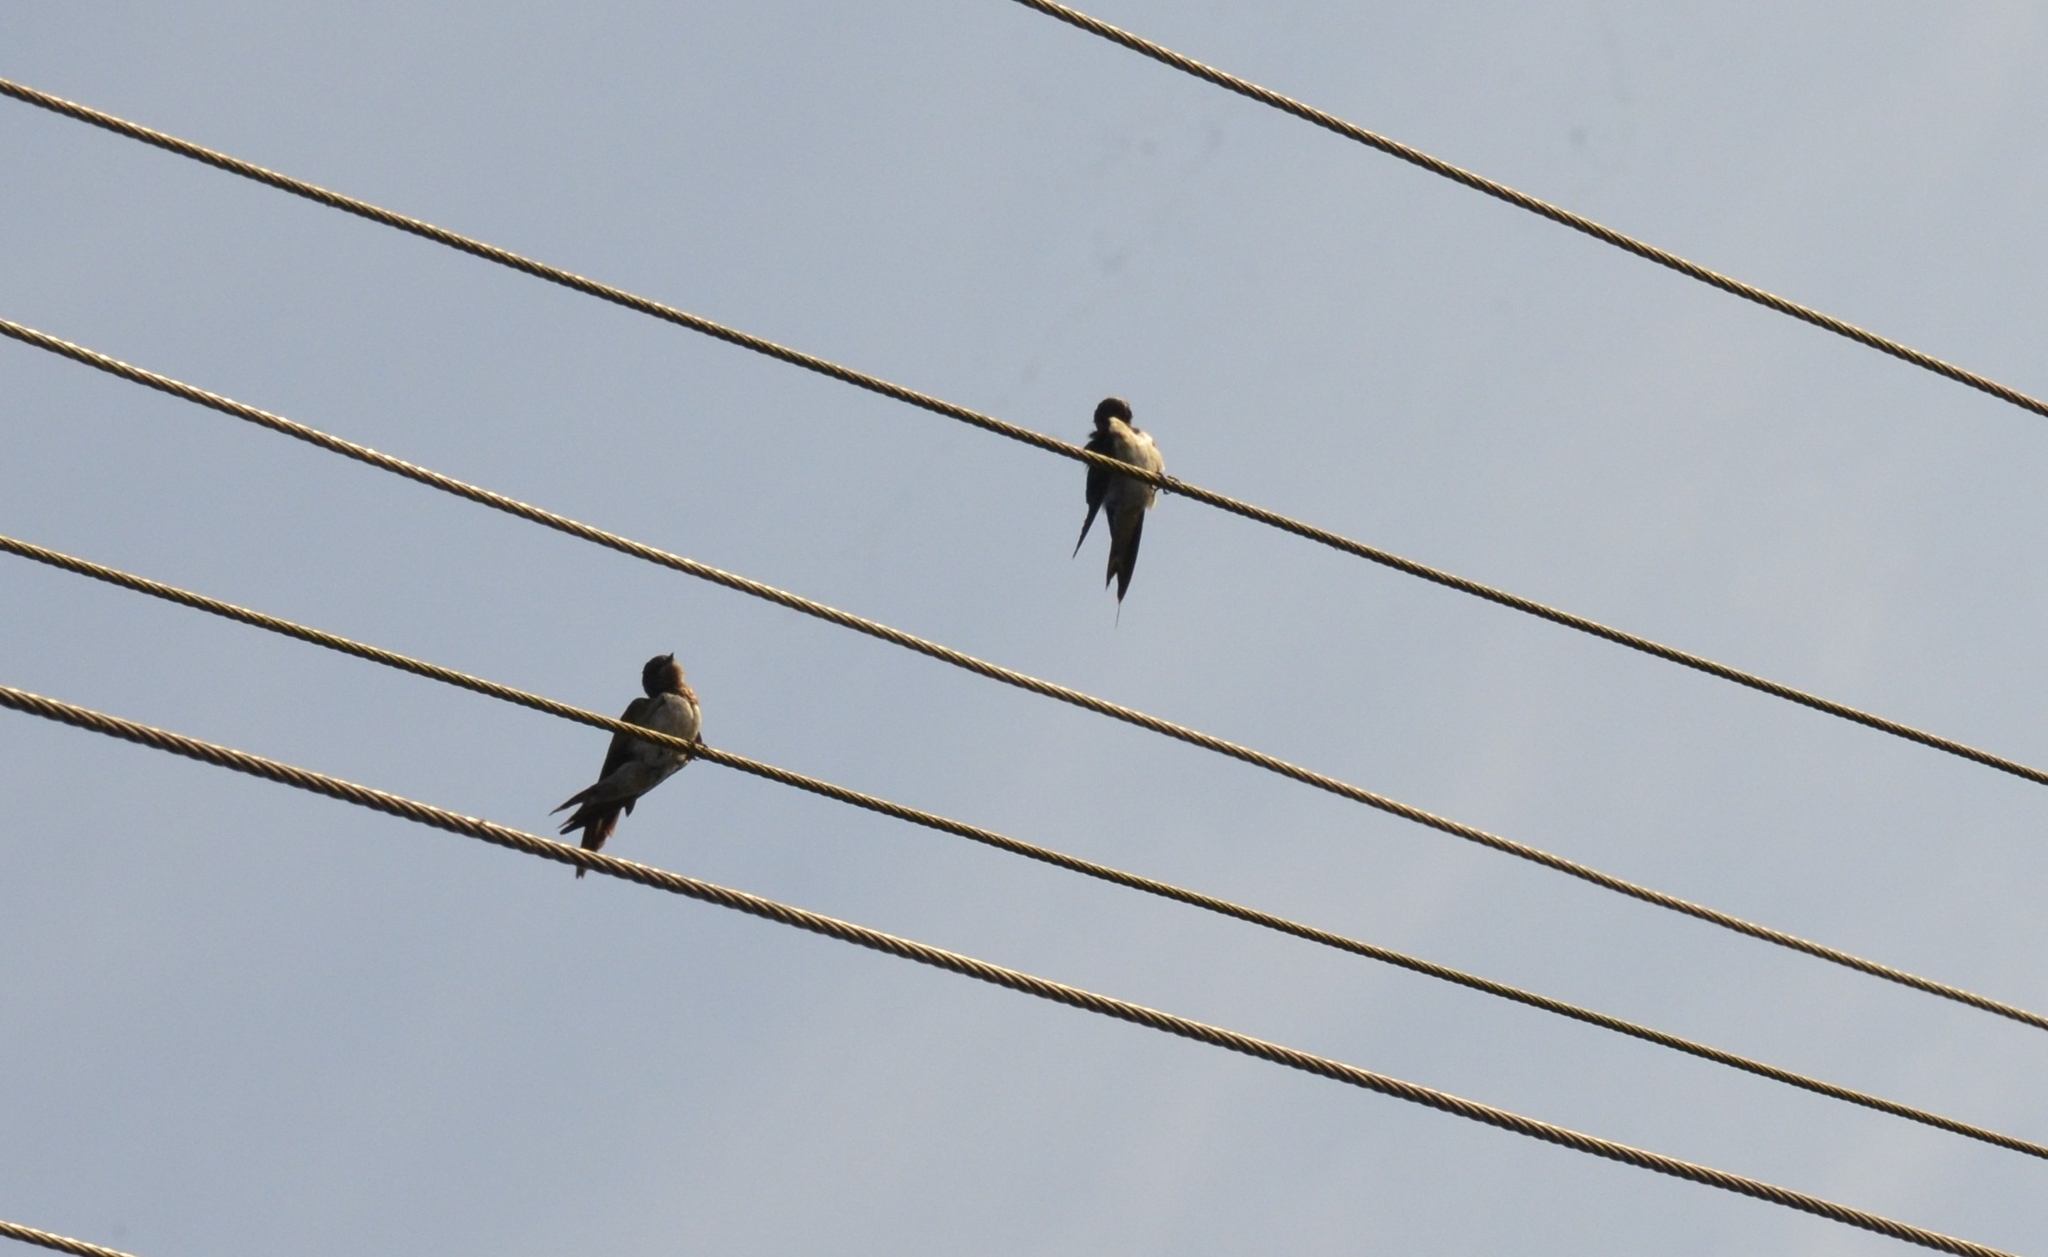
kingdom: Animalia
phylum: Chordata
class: Aves
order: Passeriformes
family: Hirundinidae
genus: Hirundo
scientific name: Hirundo rustica
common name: Barn swallow
